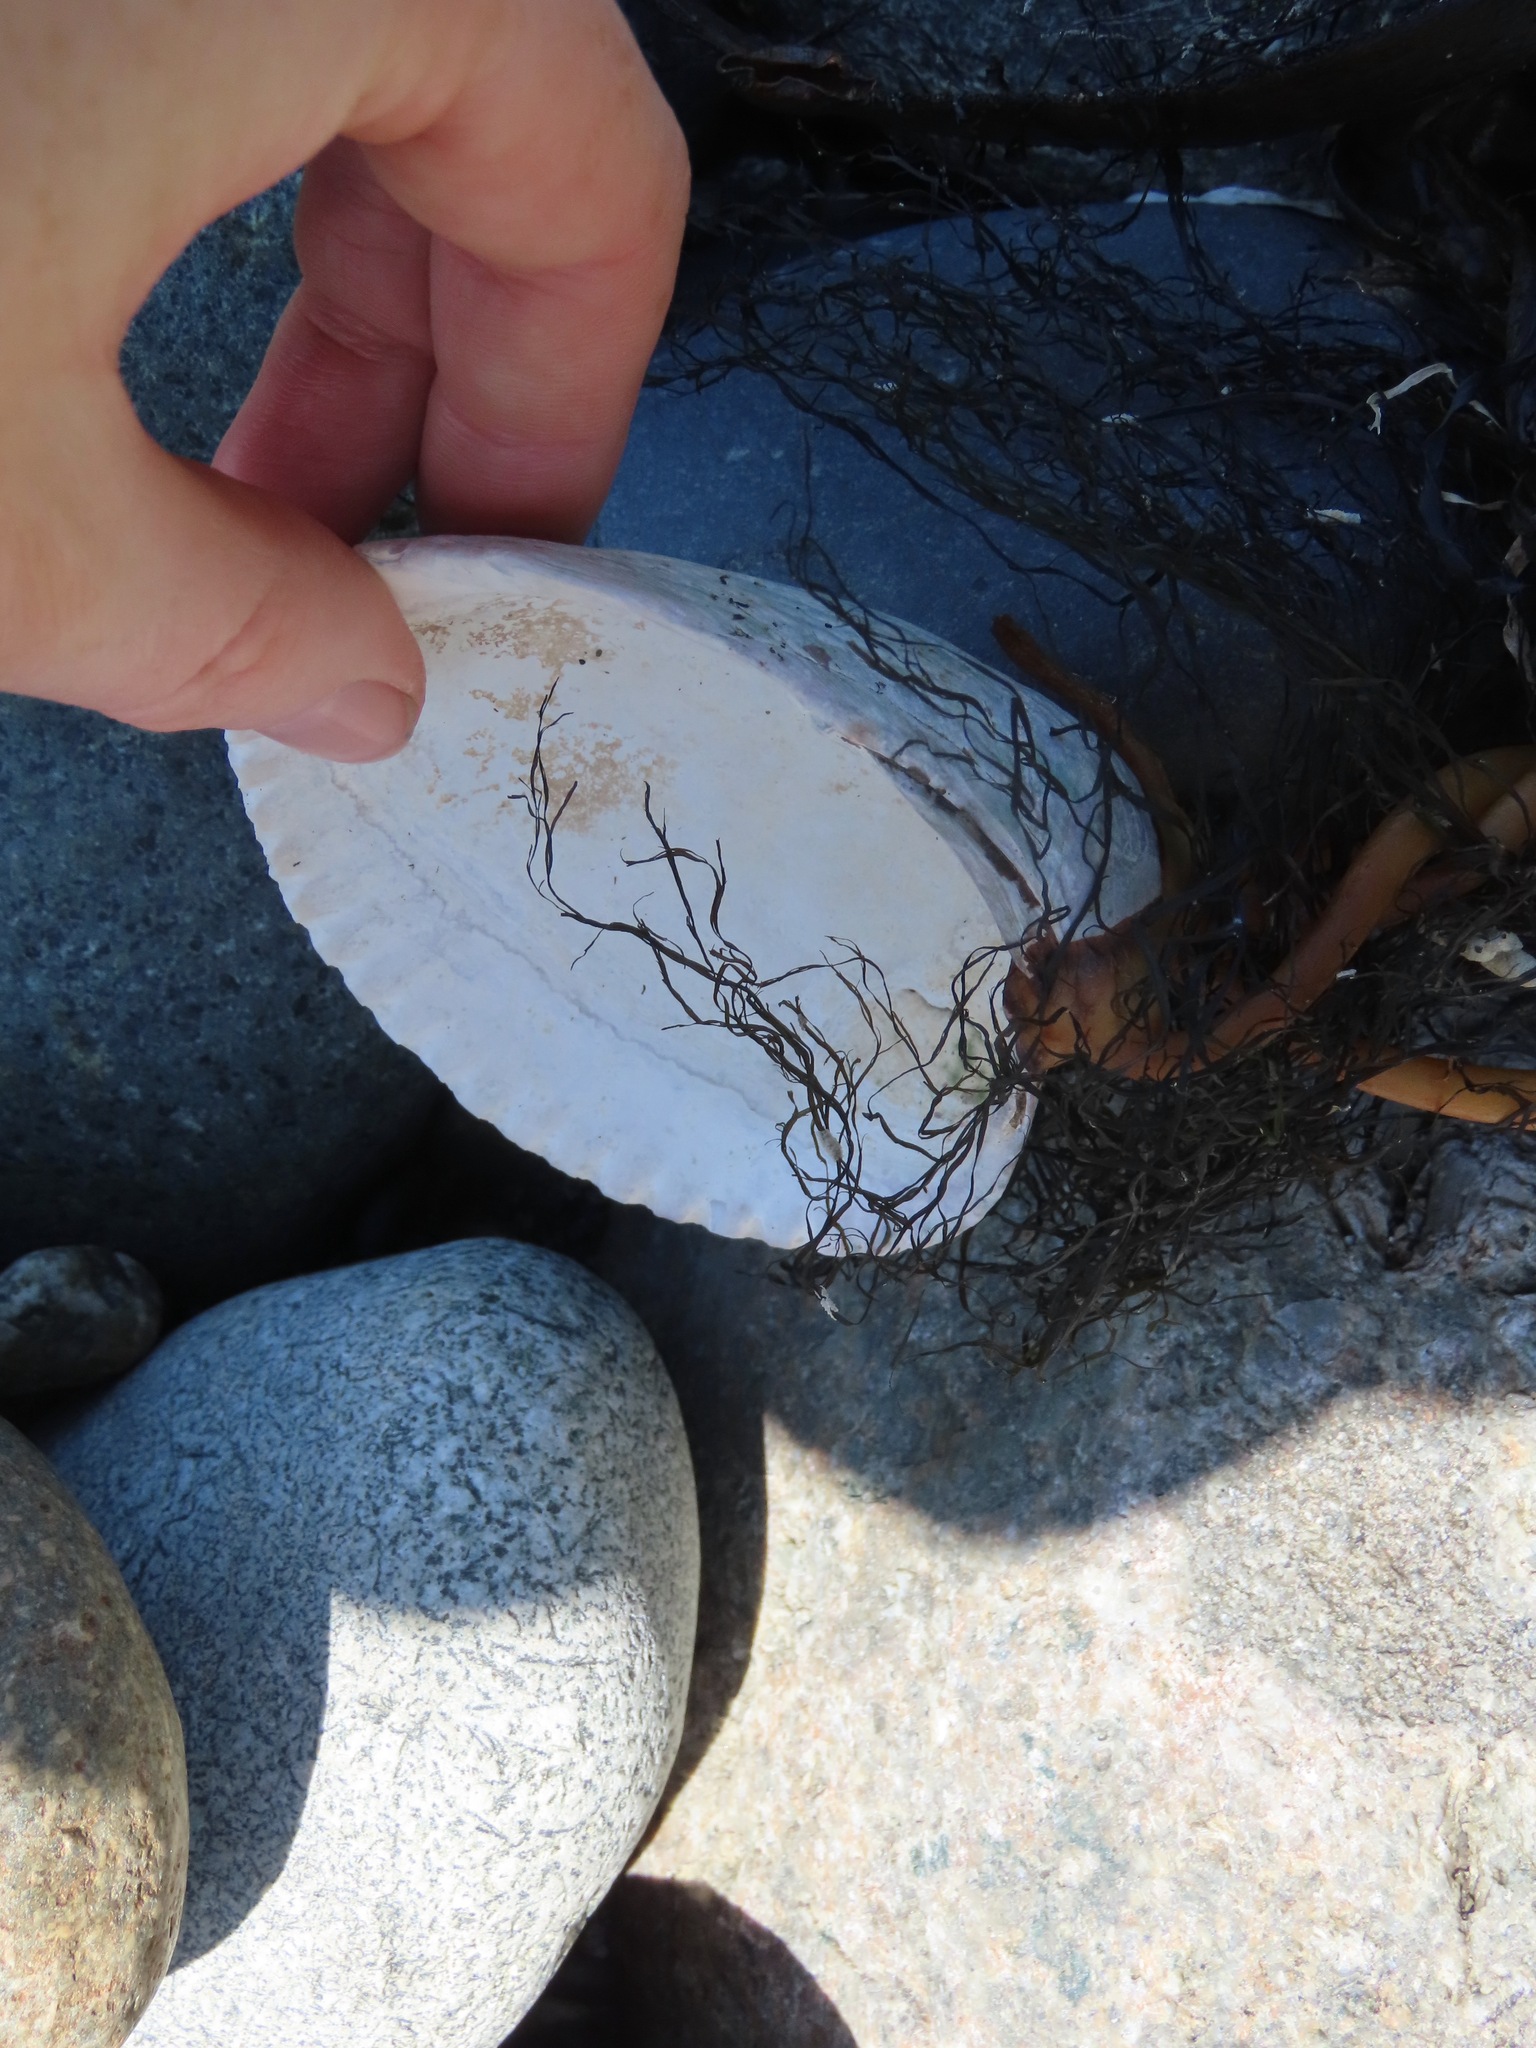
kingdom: Animalia
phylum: Mollusca
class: Bivalvia
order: Cardiida
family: Cardiidae
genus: Clinocardium
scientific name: Clinocardium nuttallii
